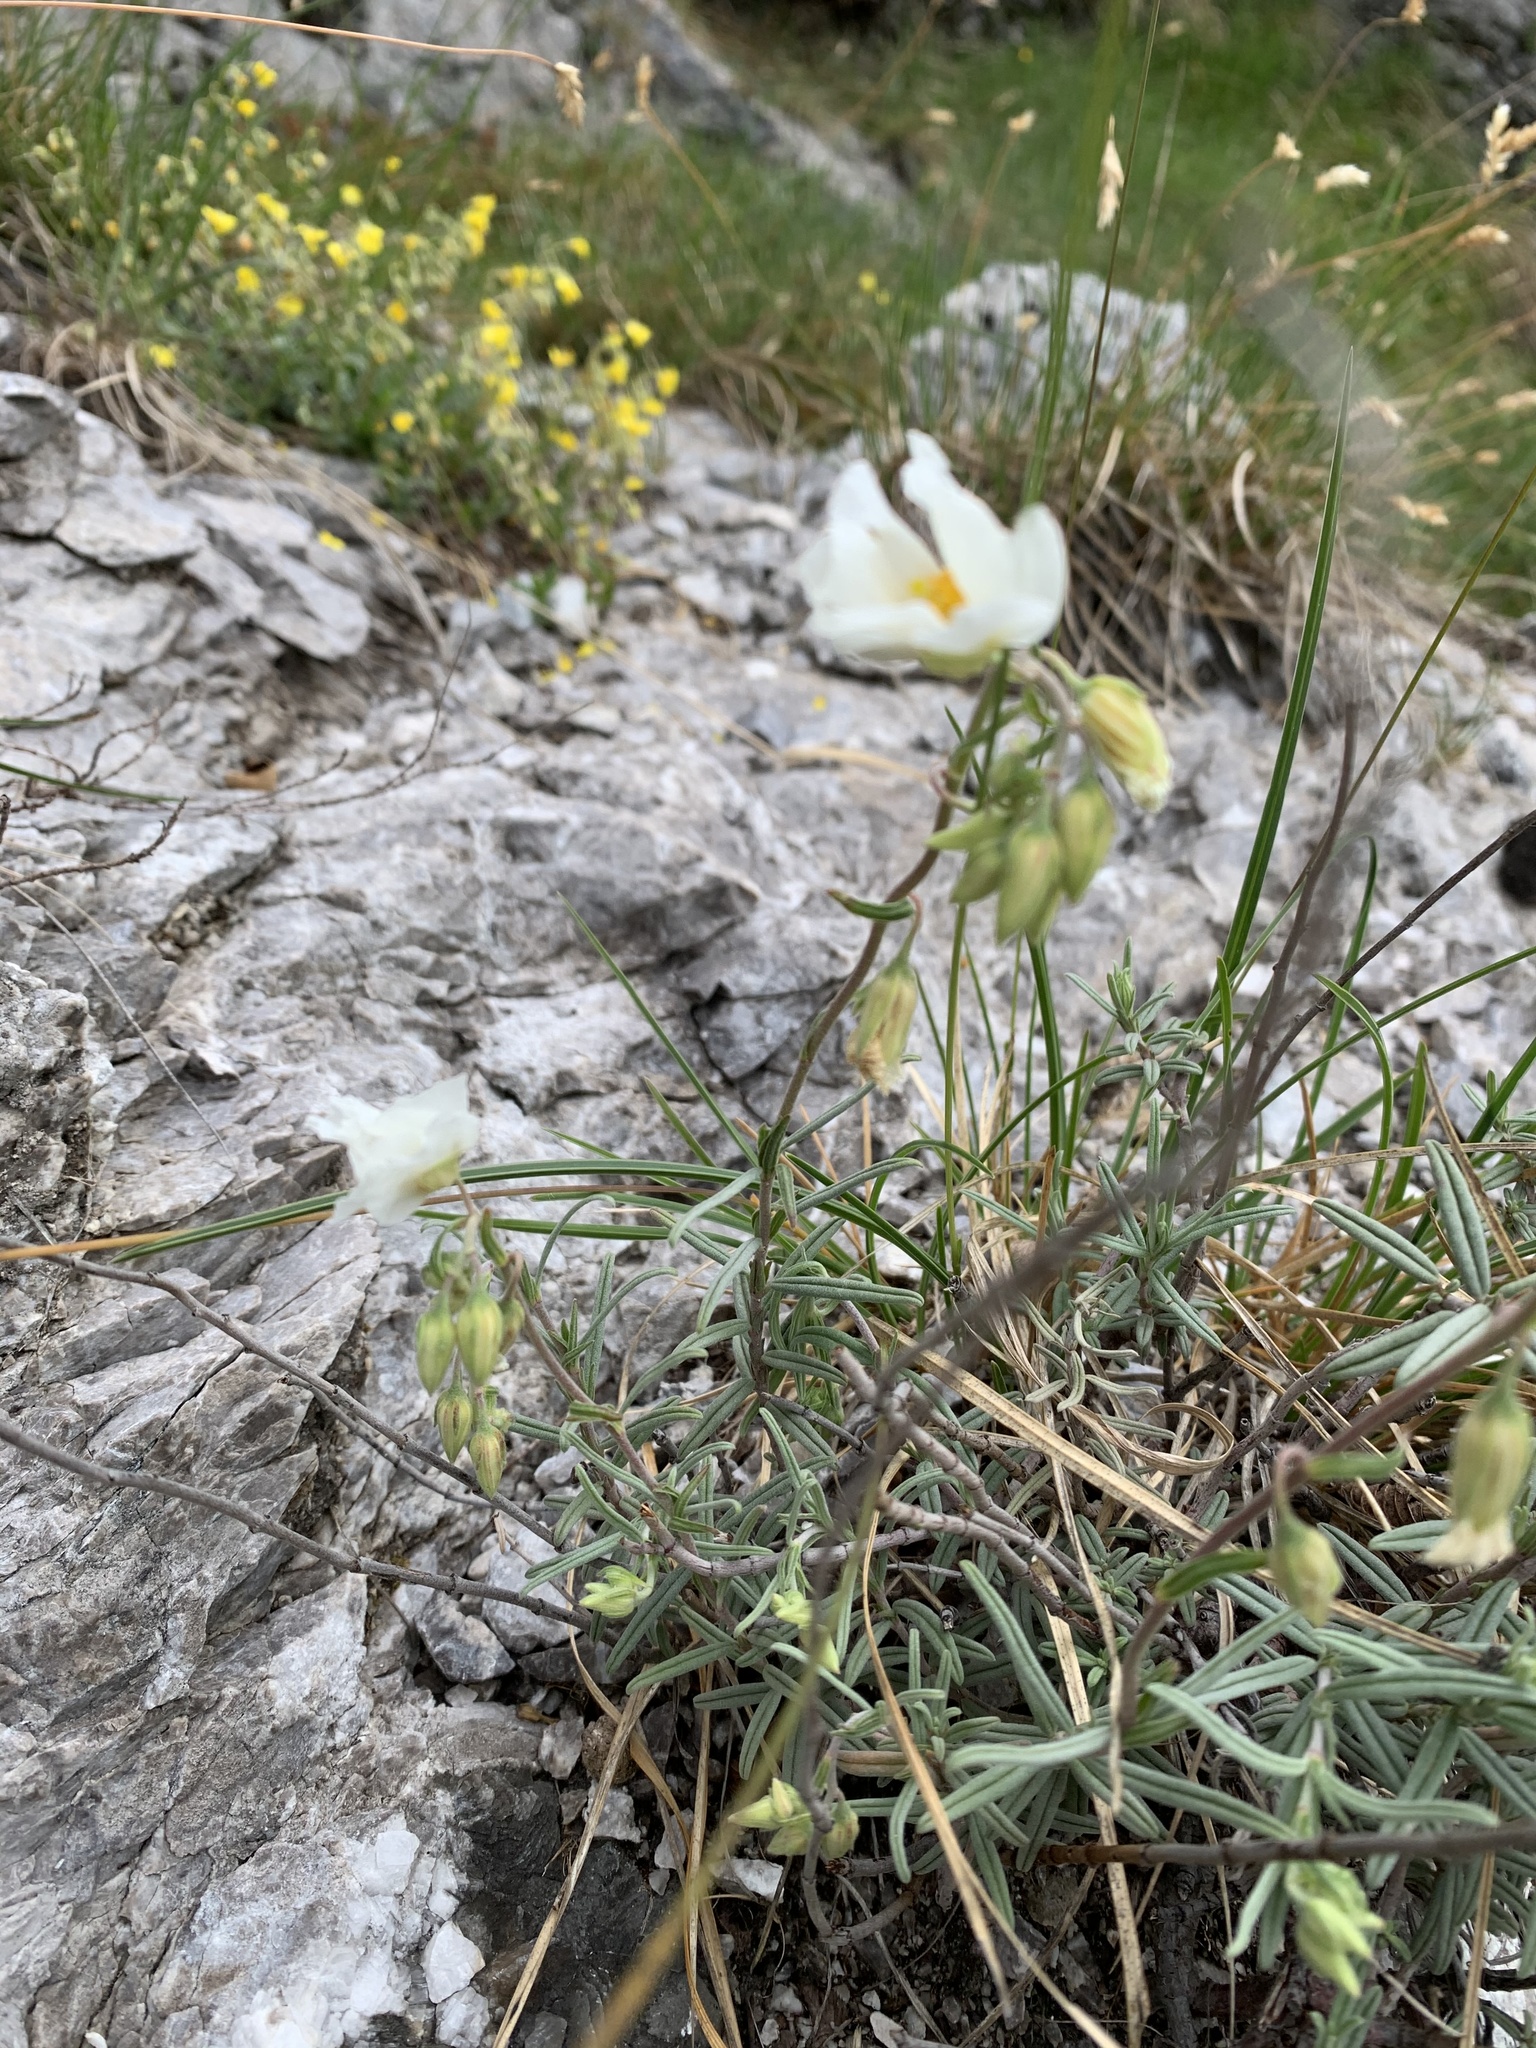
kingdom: Plantae
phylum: Tracheophyta
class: Magnoliopsida
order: Malvales
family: Cistaceae
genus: Helianthemum
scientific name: Helianthemum apenninum
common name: White rock-rose
